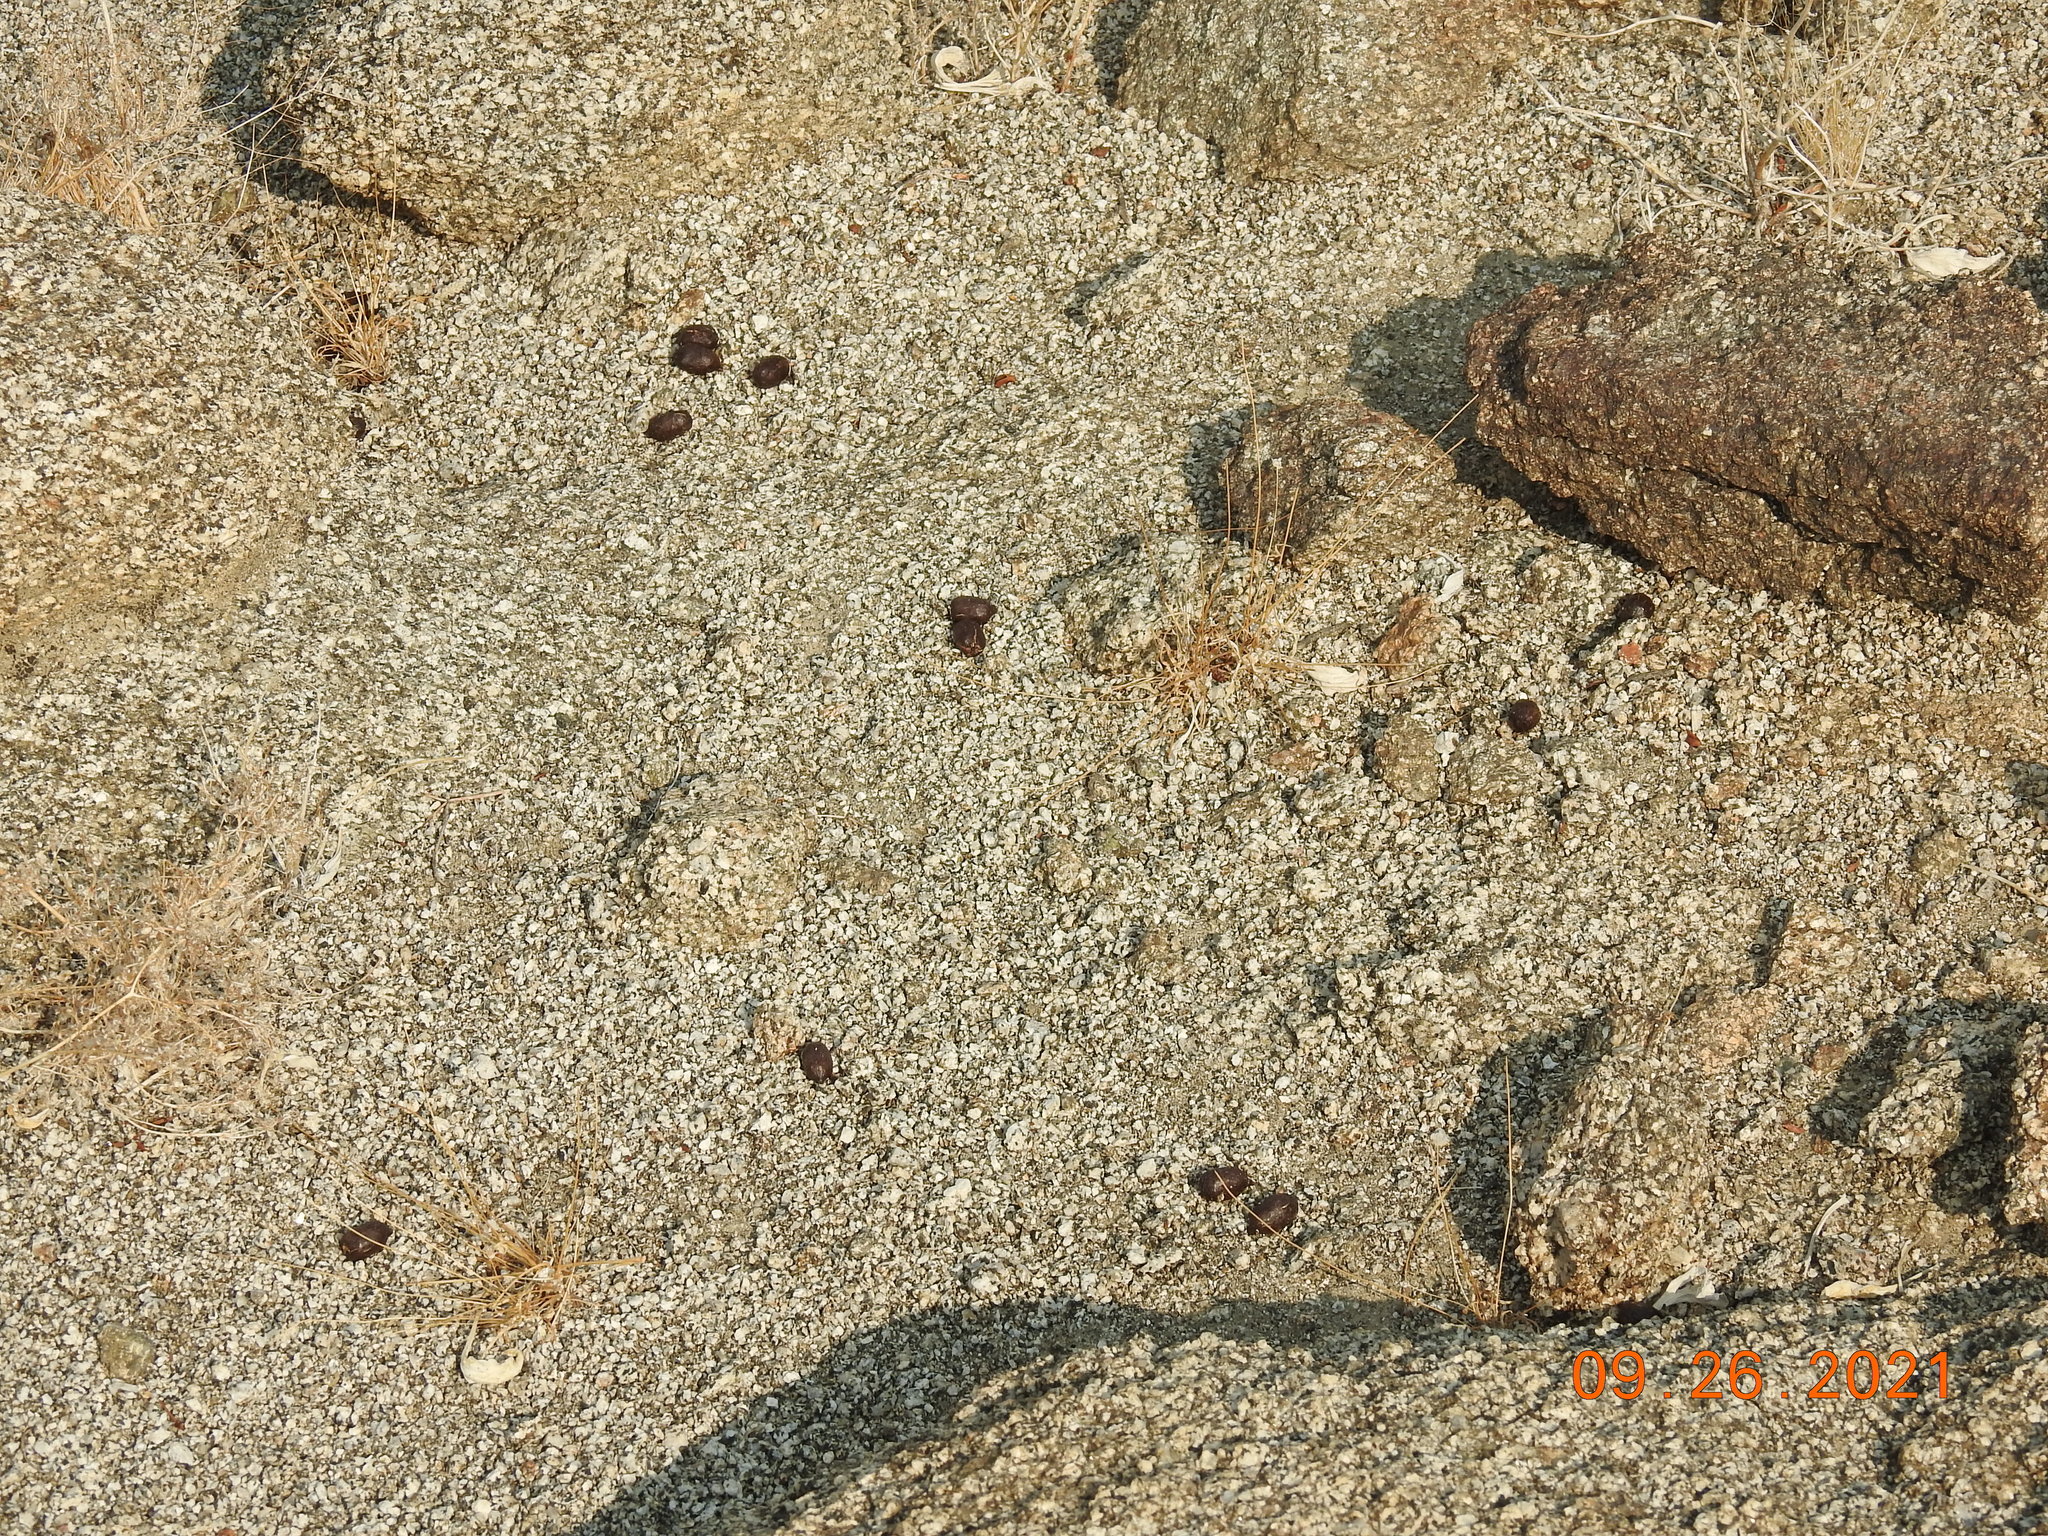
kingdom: Animalia
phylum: Chordata
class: Mammalia
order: Artiodactyla
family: Bovidae
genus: Ovis
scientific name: Ovis canadensis
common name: Bighorn sheep
